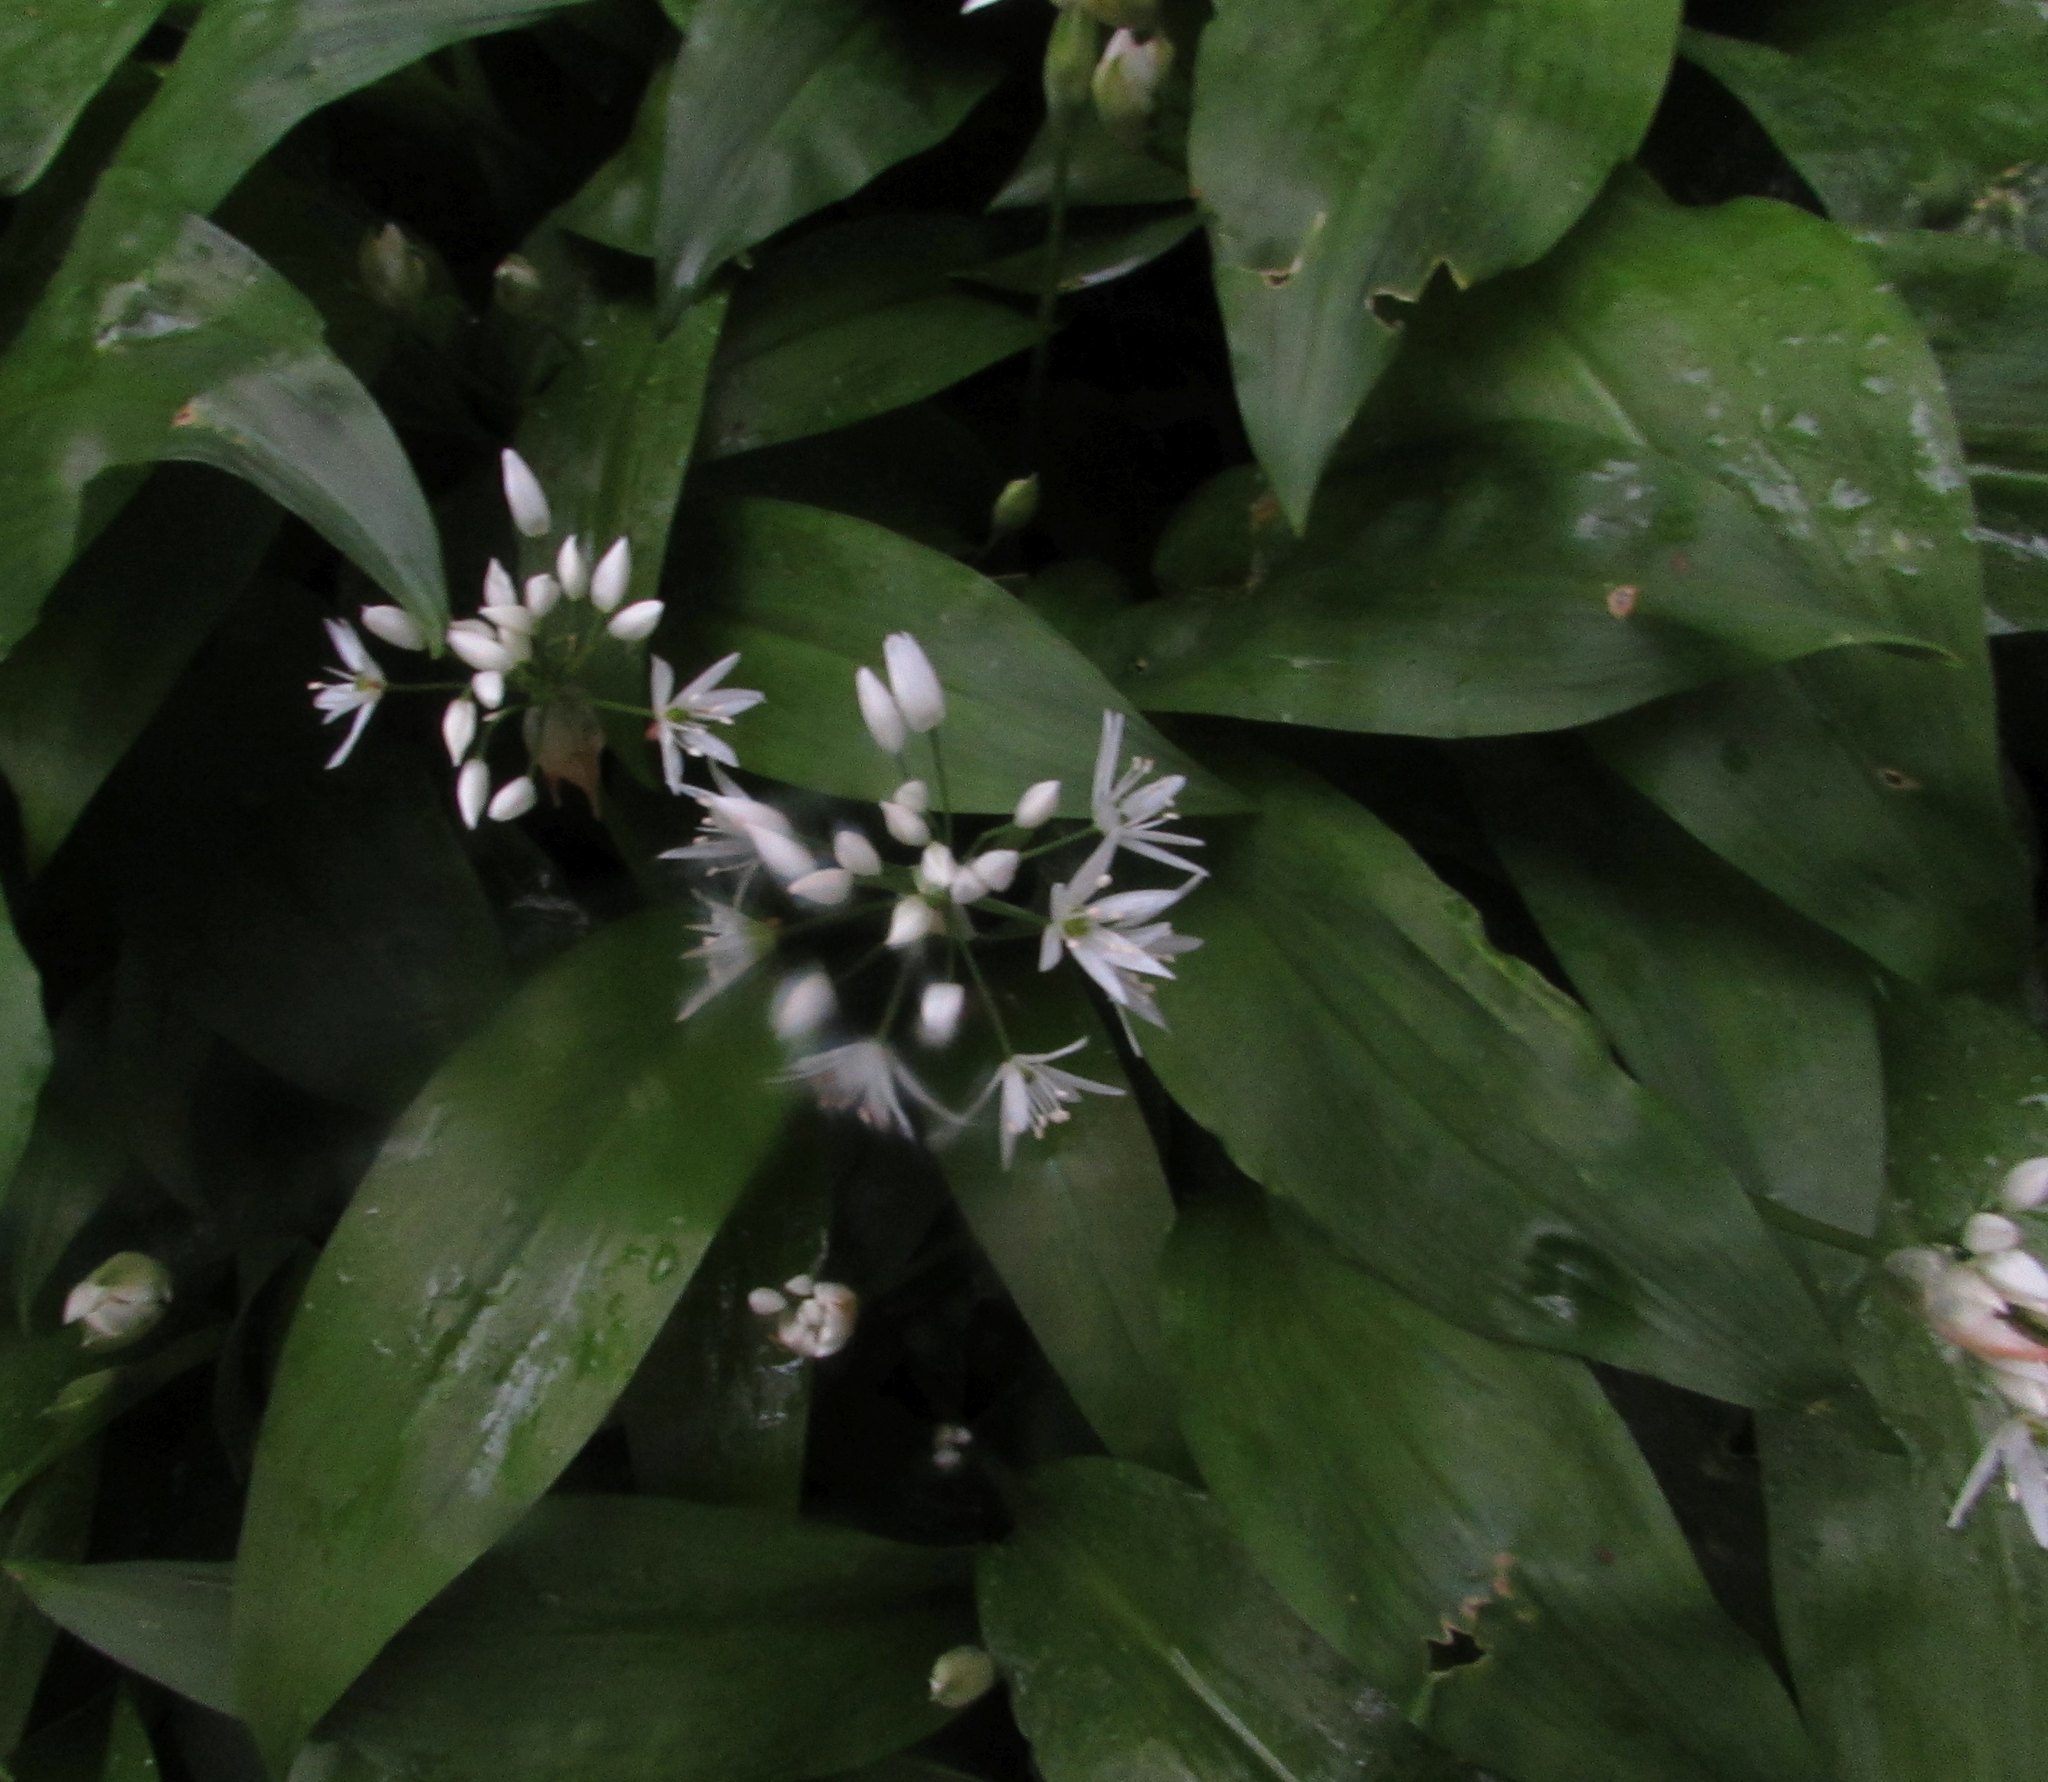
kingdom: Plantae
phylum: Tracheophyta
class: Liliopsida
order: Asparagales
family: Amaryllidaceae
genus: Allium
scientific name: Allium ursinum
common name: Ramsons
